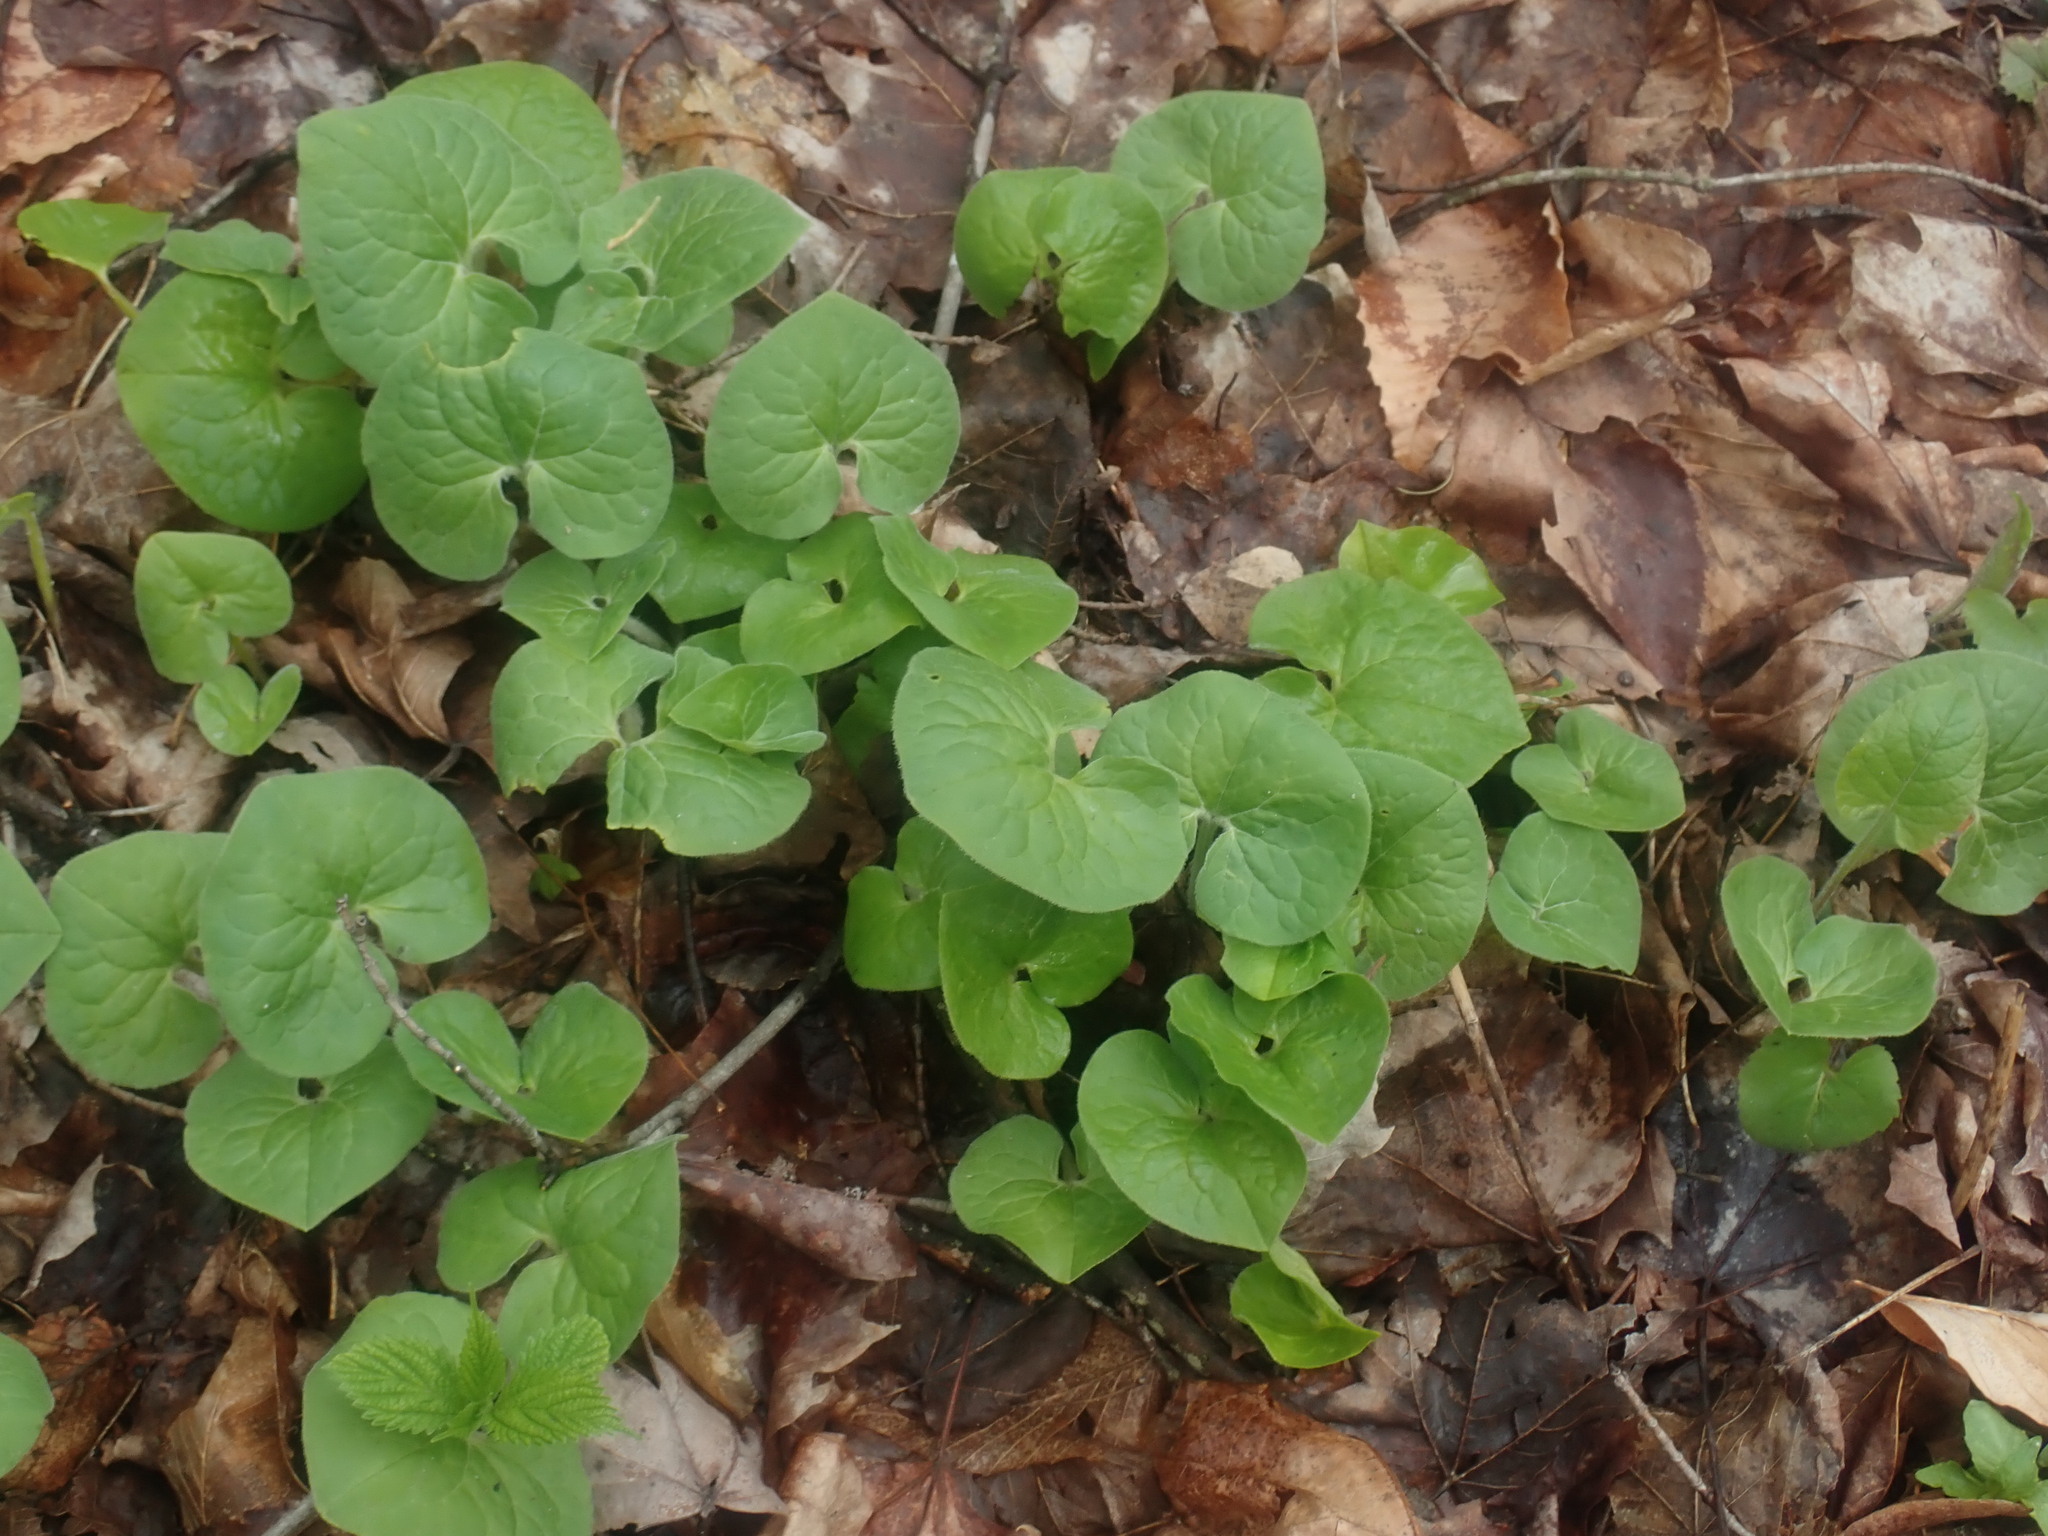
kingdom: Plantae
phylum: Tracheophyta
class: Magnoliopsida
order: Piperales
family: Aristolochiaceae
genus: Asarum
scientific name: Asarum canadense
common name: Wild ginger
